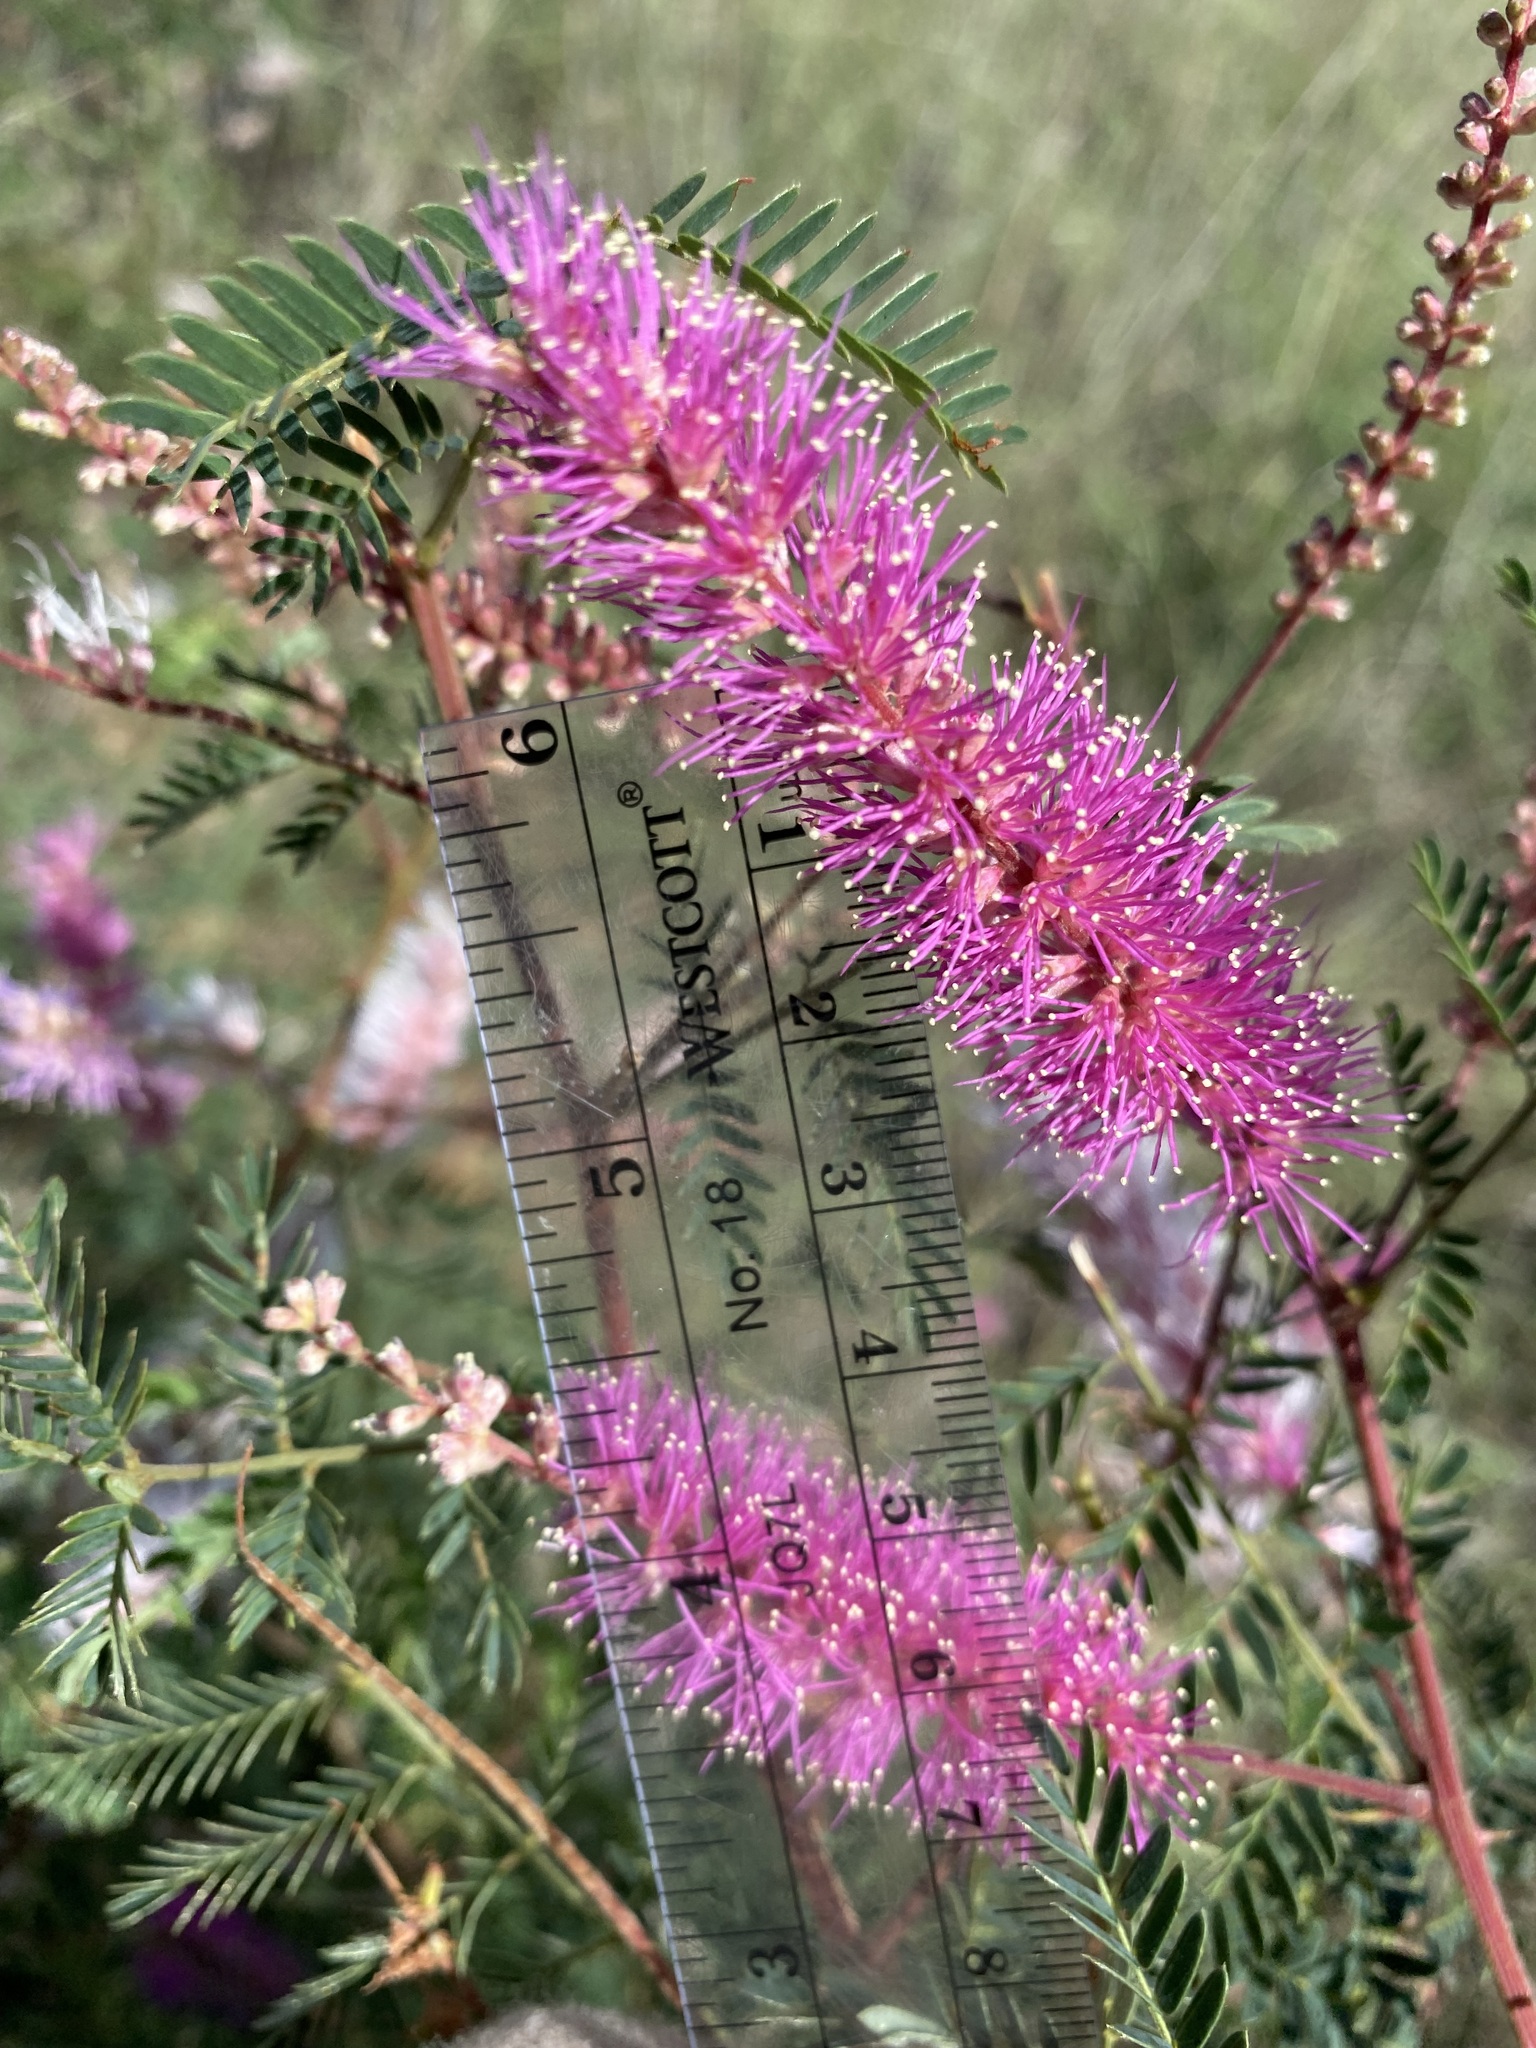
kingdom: Plantae
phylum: Tracheophyta
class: Magnoliopsida
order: Fabales
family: Fabaceae
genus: Mimosa
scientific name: Mimosa dysocarpa
